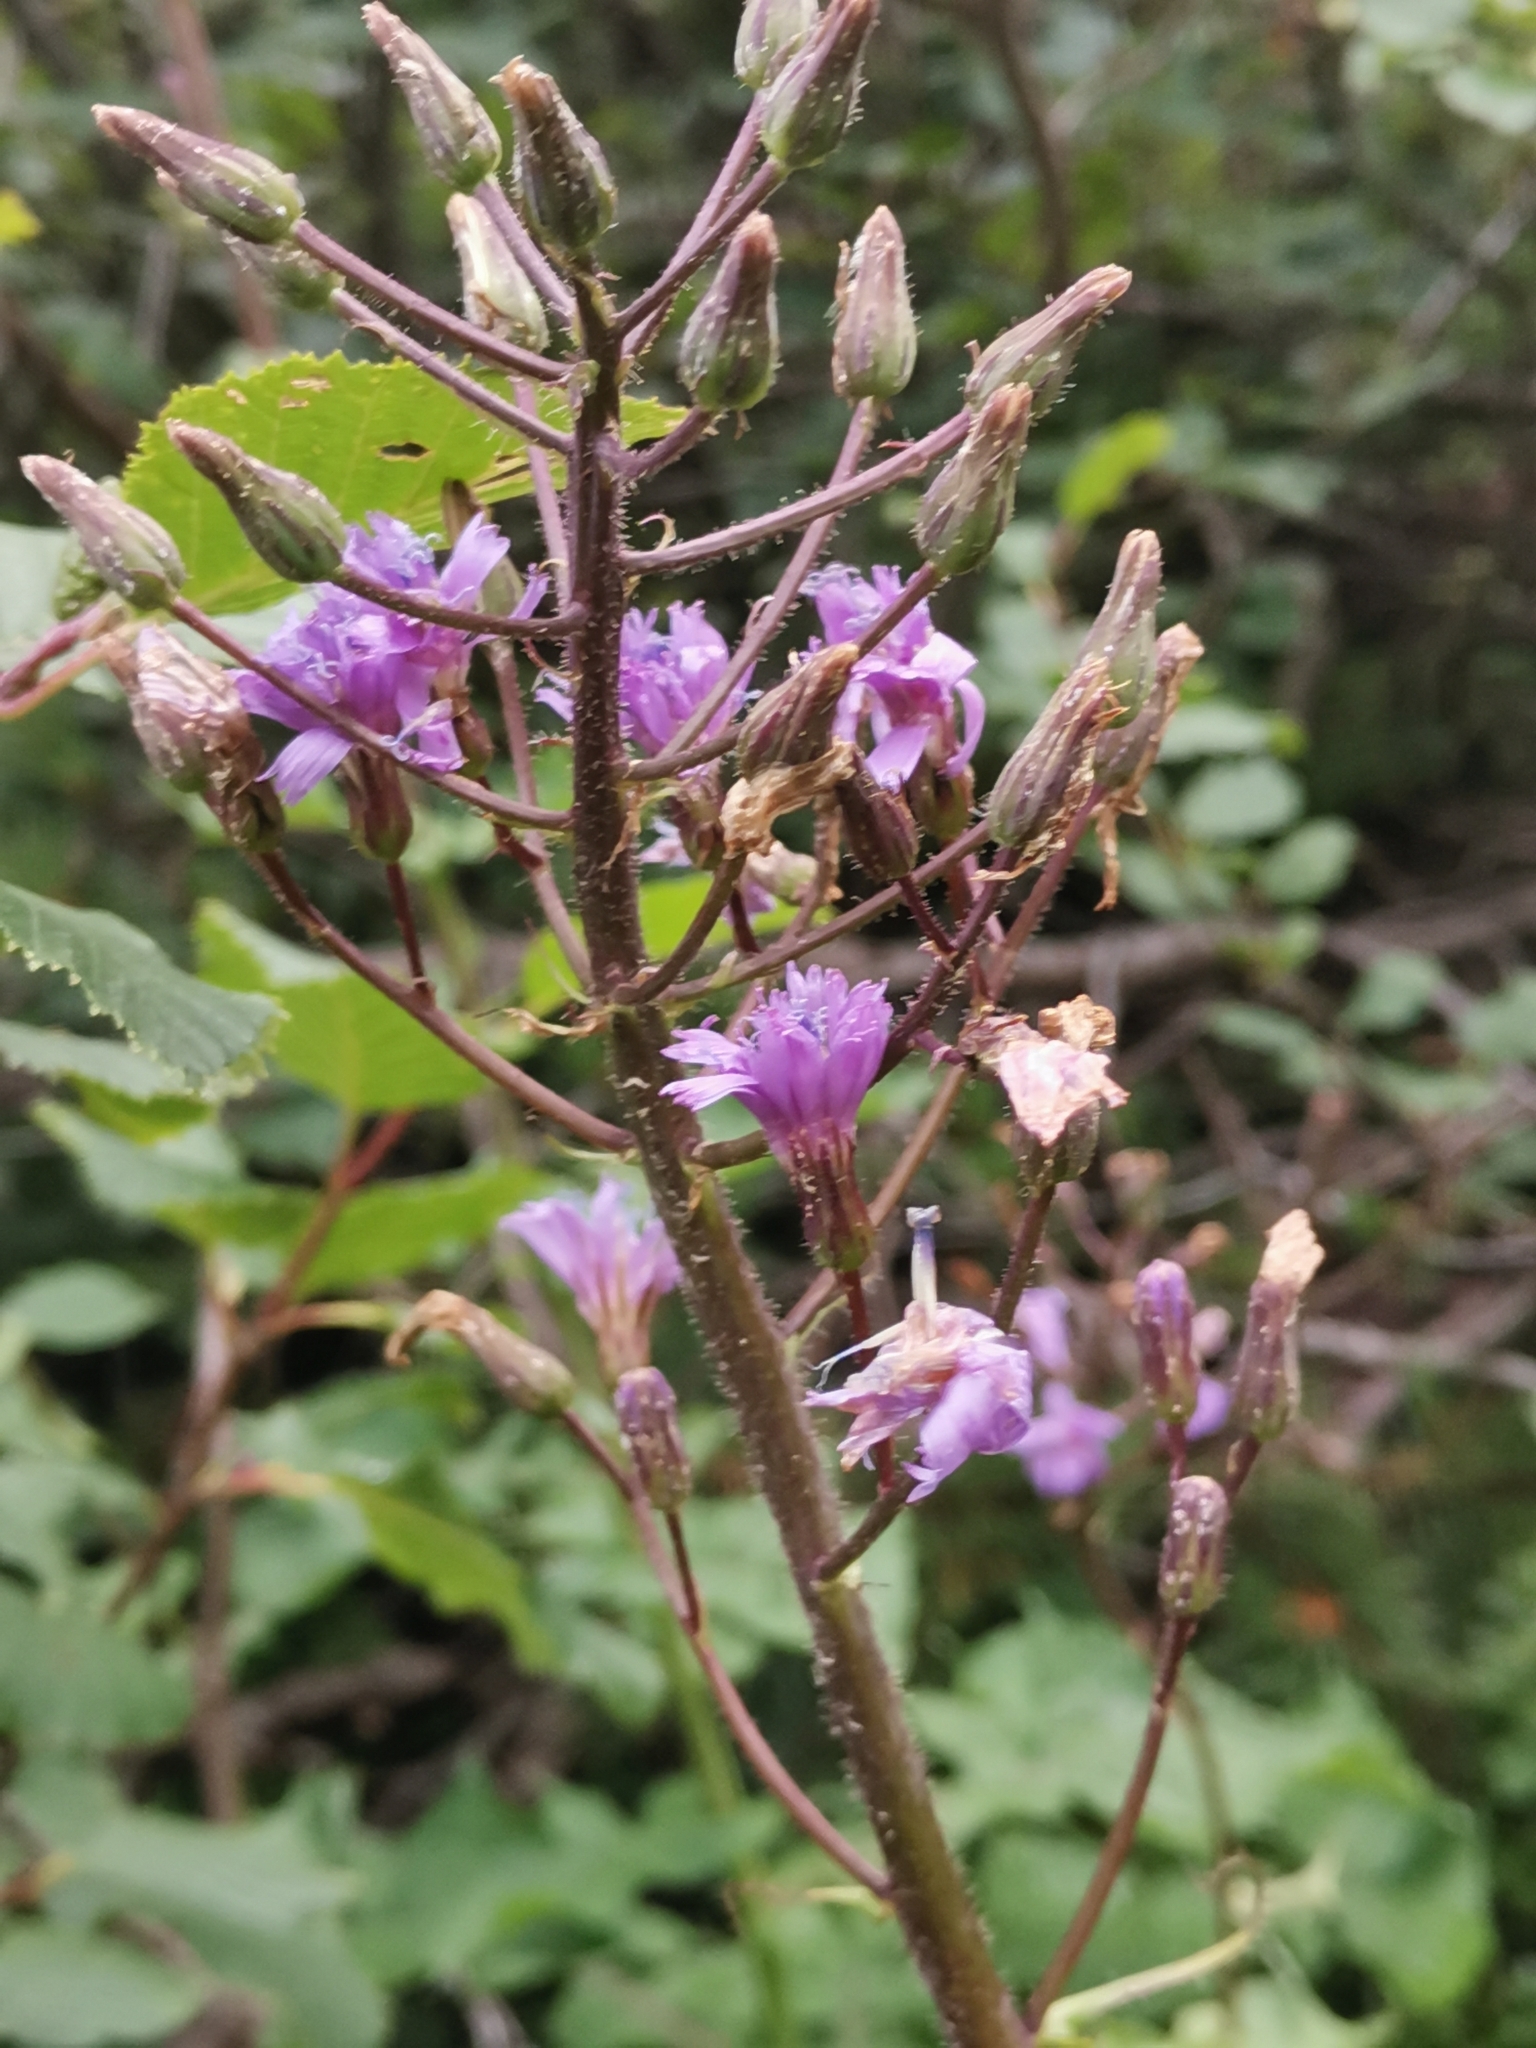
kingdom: Plantae
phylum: Tracheophyta
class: Magnoliopsida
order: Asterales
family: Asteraceae
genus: Cicerbita
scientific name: Cicerbita alpina
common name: Alpine blue-sow-thistle
